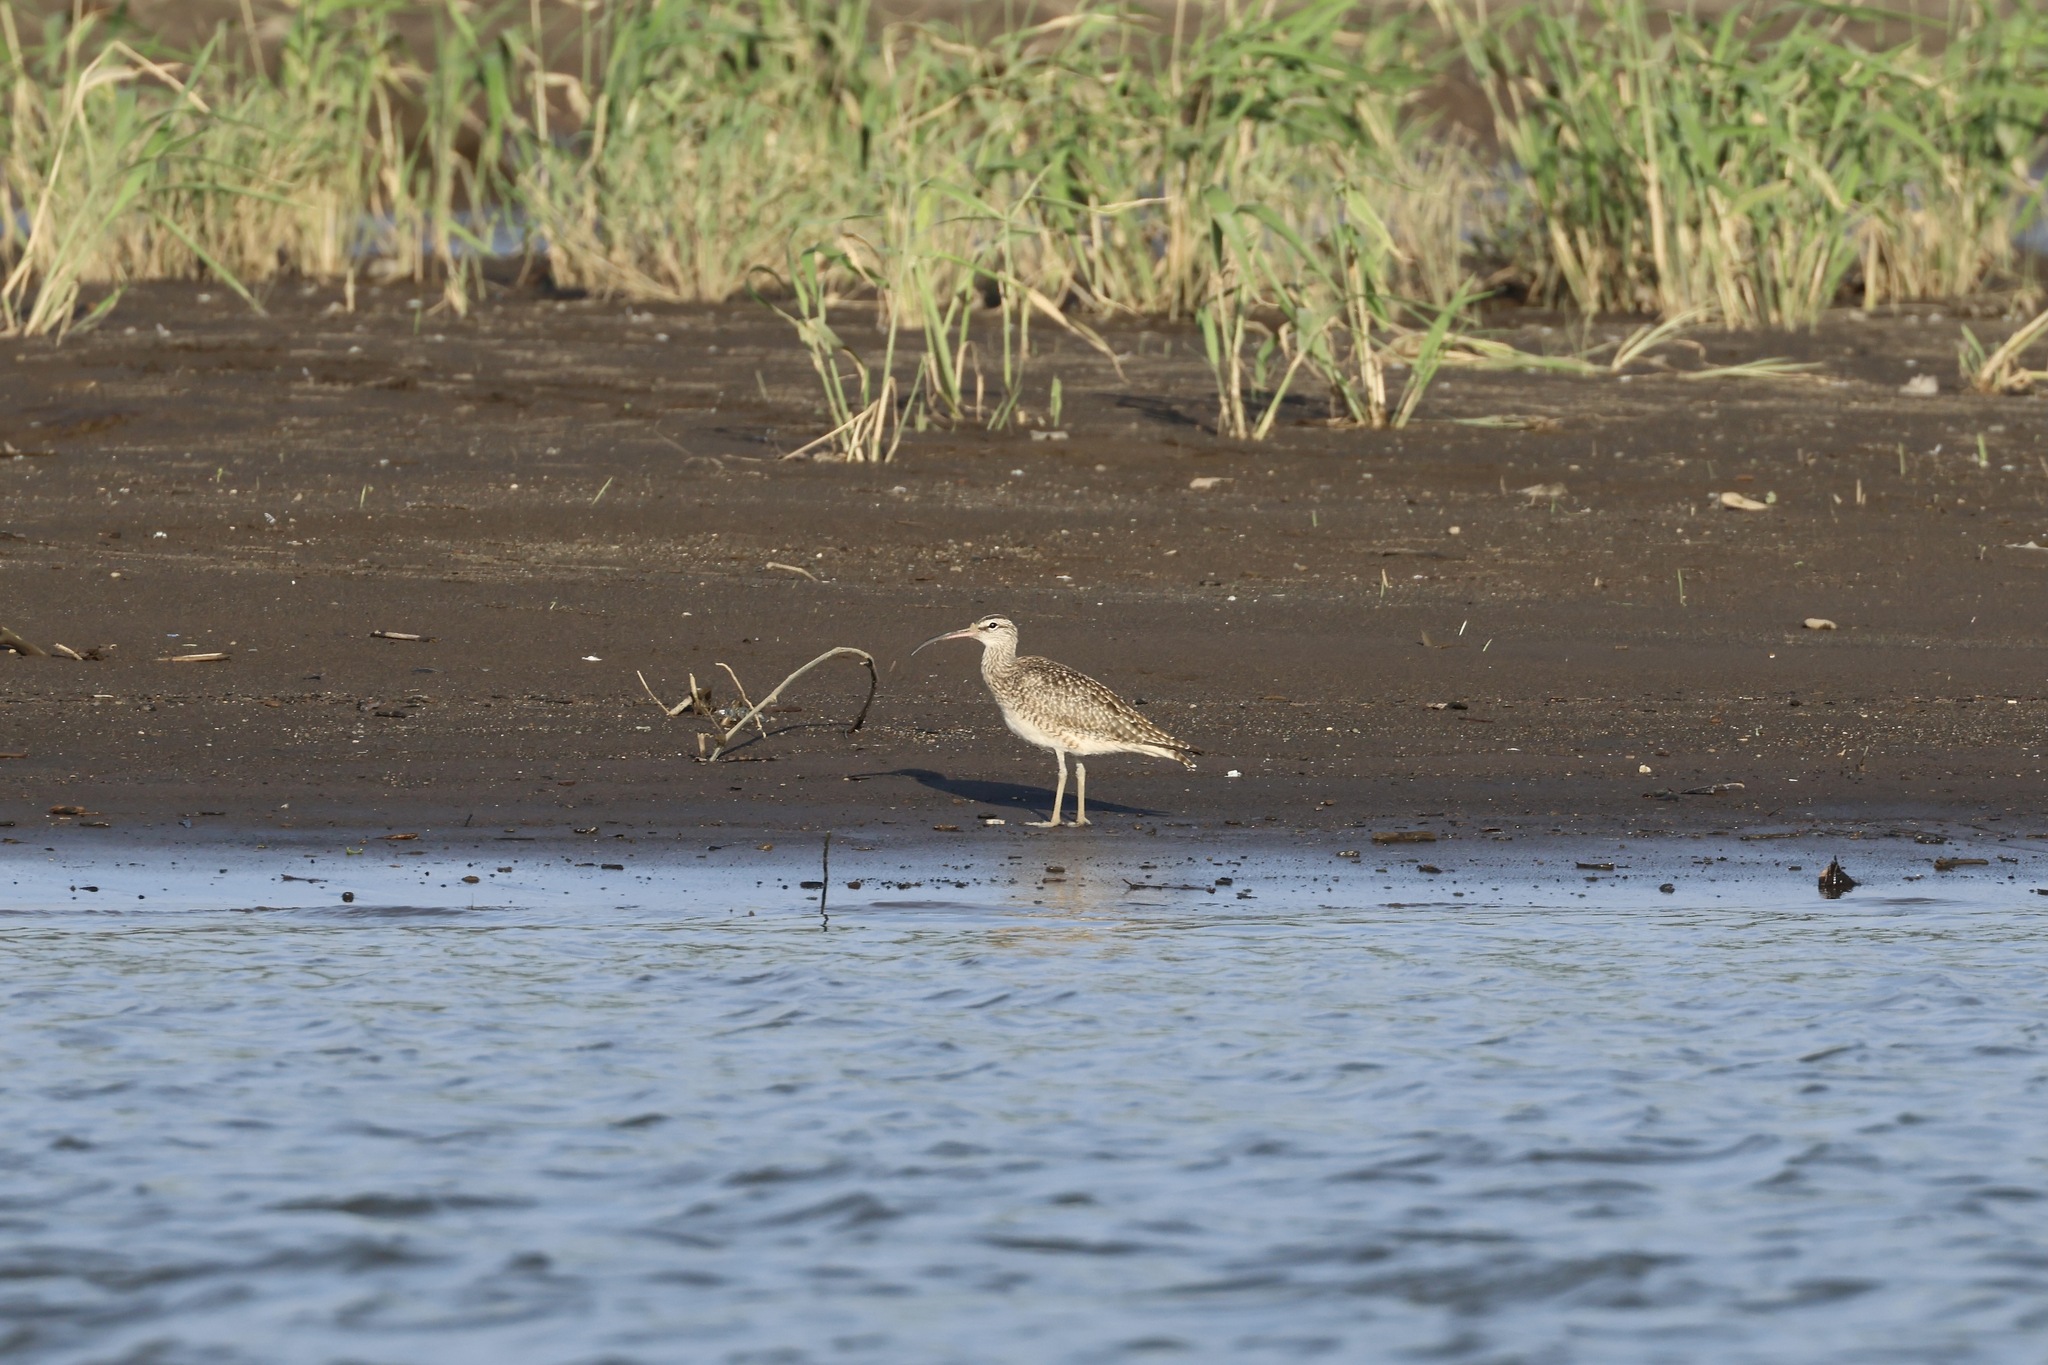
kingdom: Animalia
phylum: Chordata
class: Aves
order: Charadriiformes
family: Scolopacidae
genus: Numenius
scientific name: Numenius phaeopus
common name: Whimbrel
